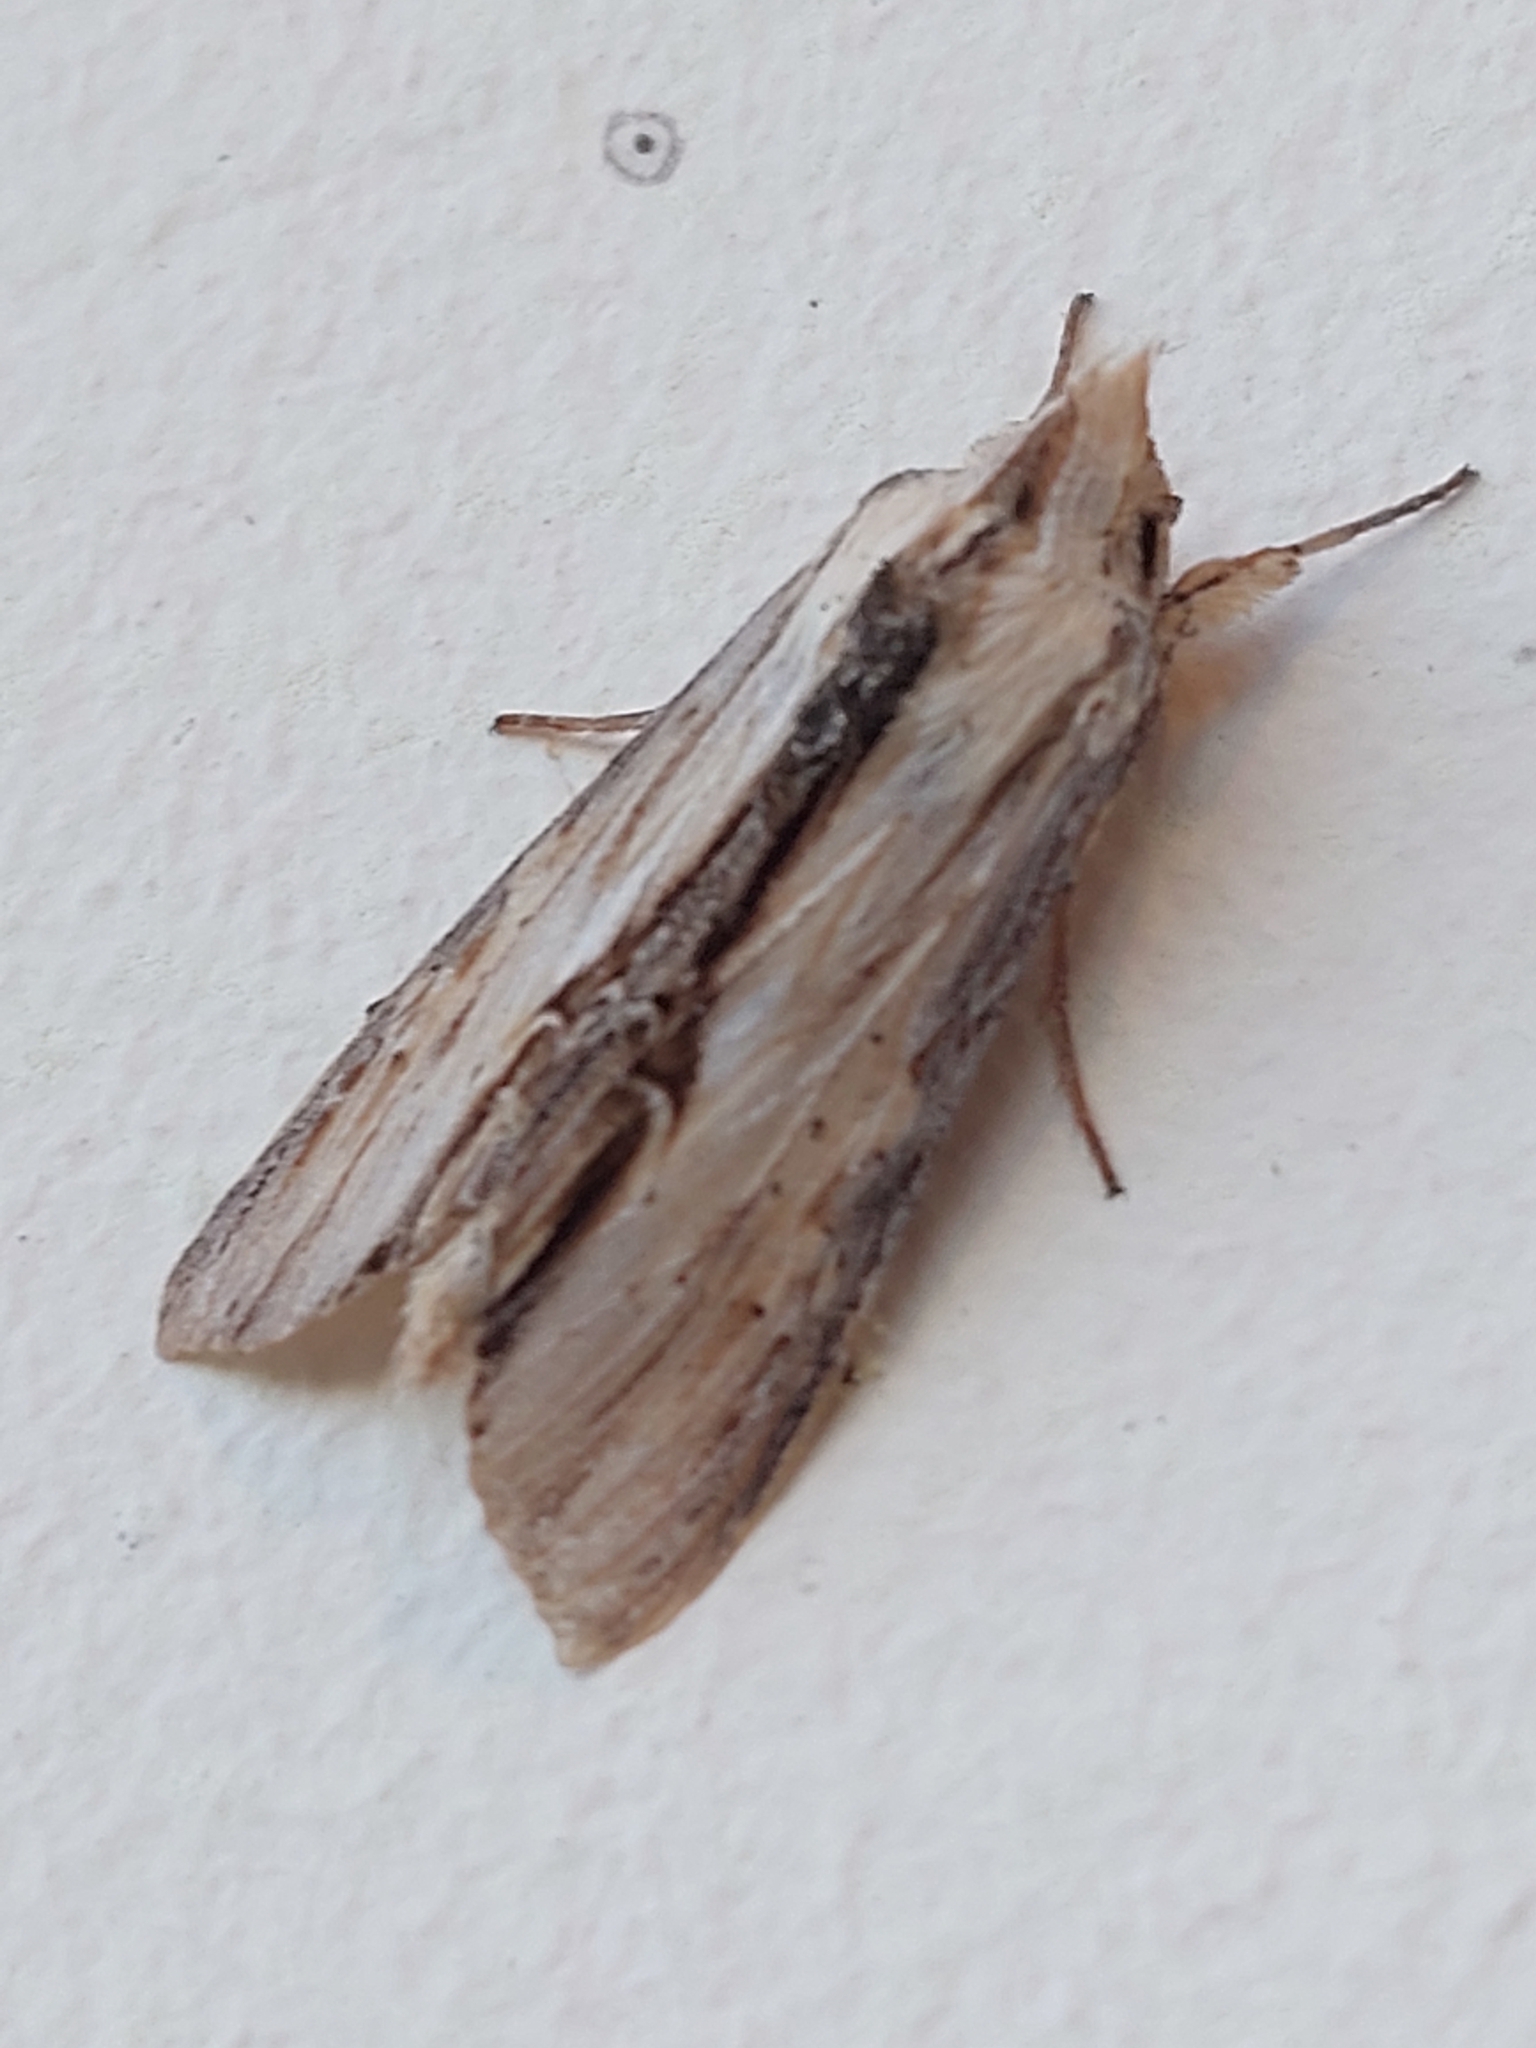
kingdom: Animalia
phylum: Arthropoda
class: Insecta
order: Lepidoptera
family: Noctuidae
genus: Cucullia
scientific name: Cucullia lychnitis
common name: Striped lychnis
